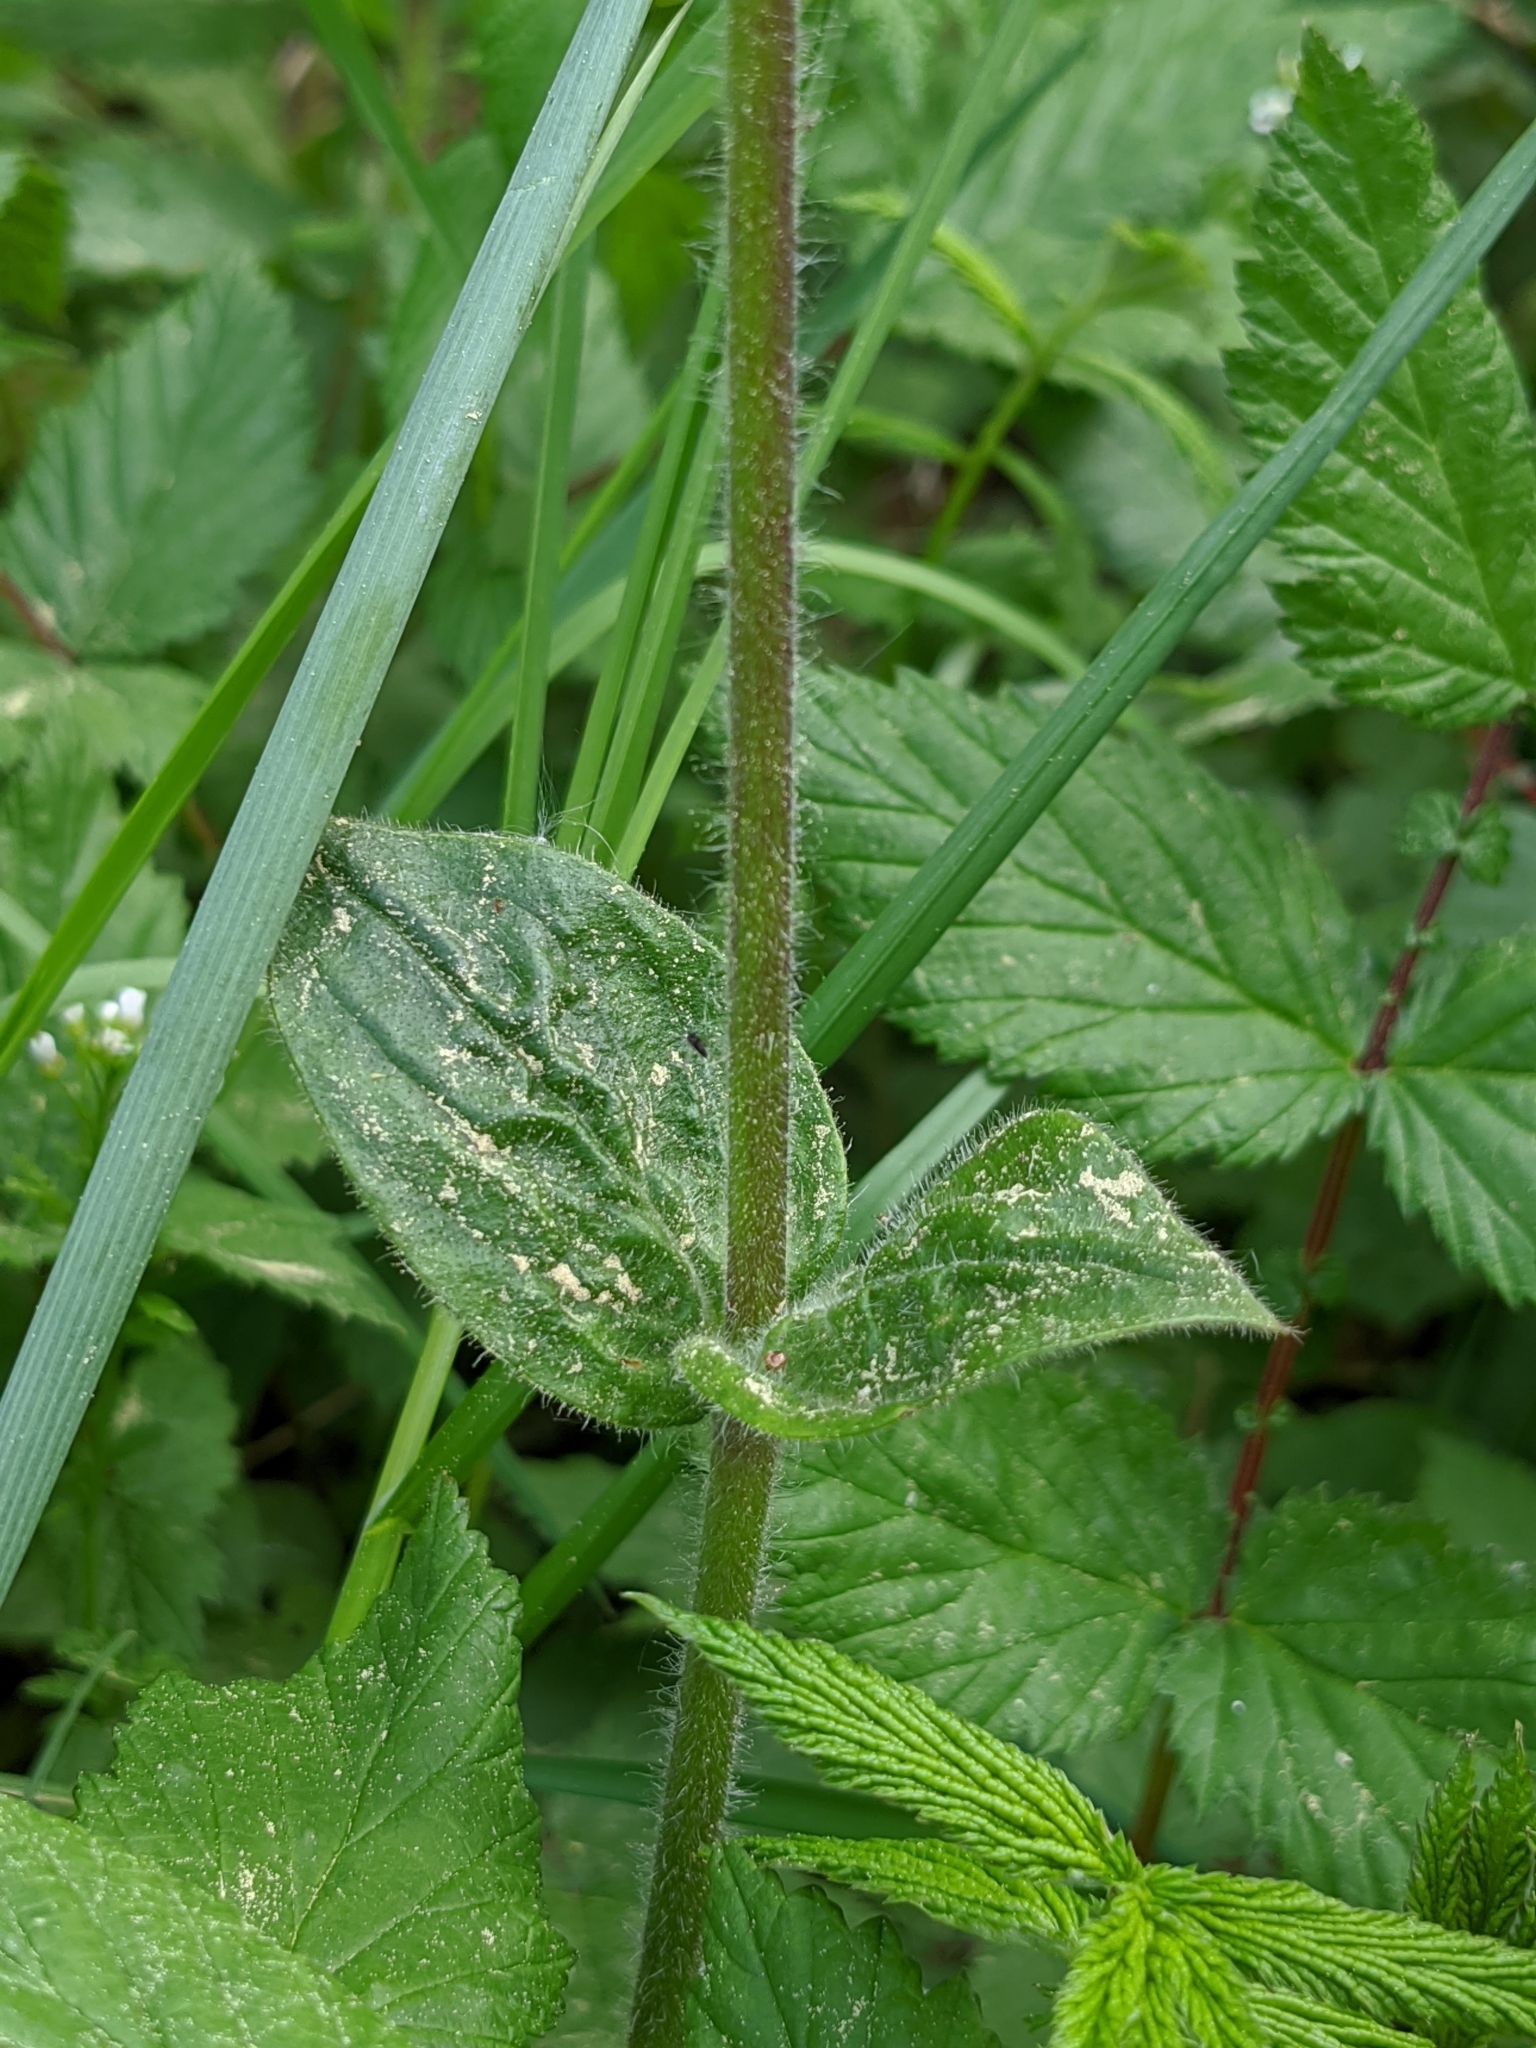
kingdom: Plantae
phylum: Tracheophyta
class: Magnoliopsida
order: Caryophyllales
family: Caryophyllaceae
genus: Silene
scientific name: Silene dioica
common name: Red campion
